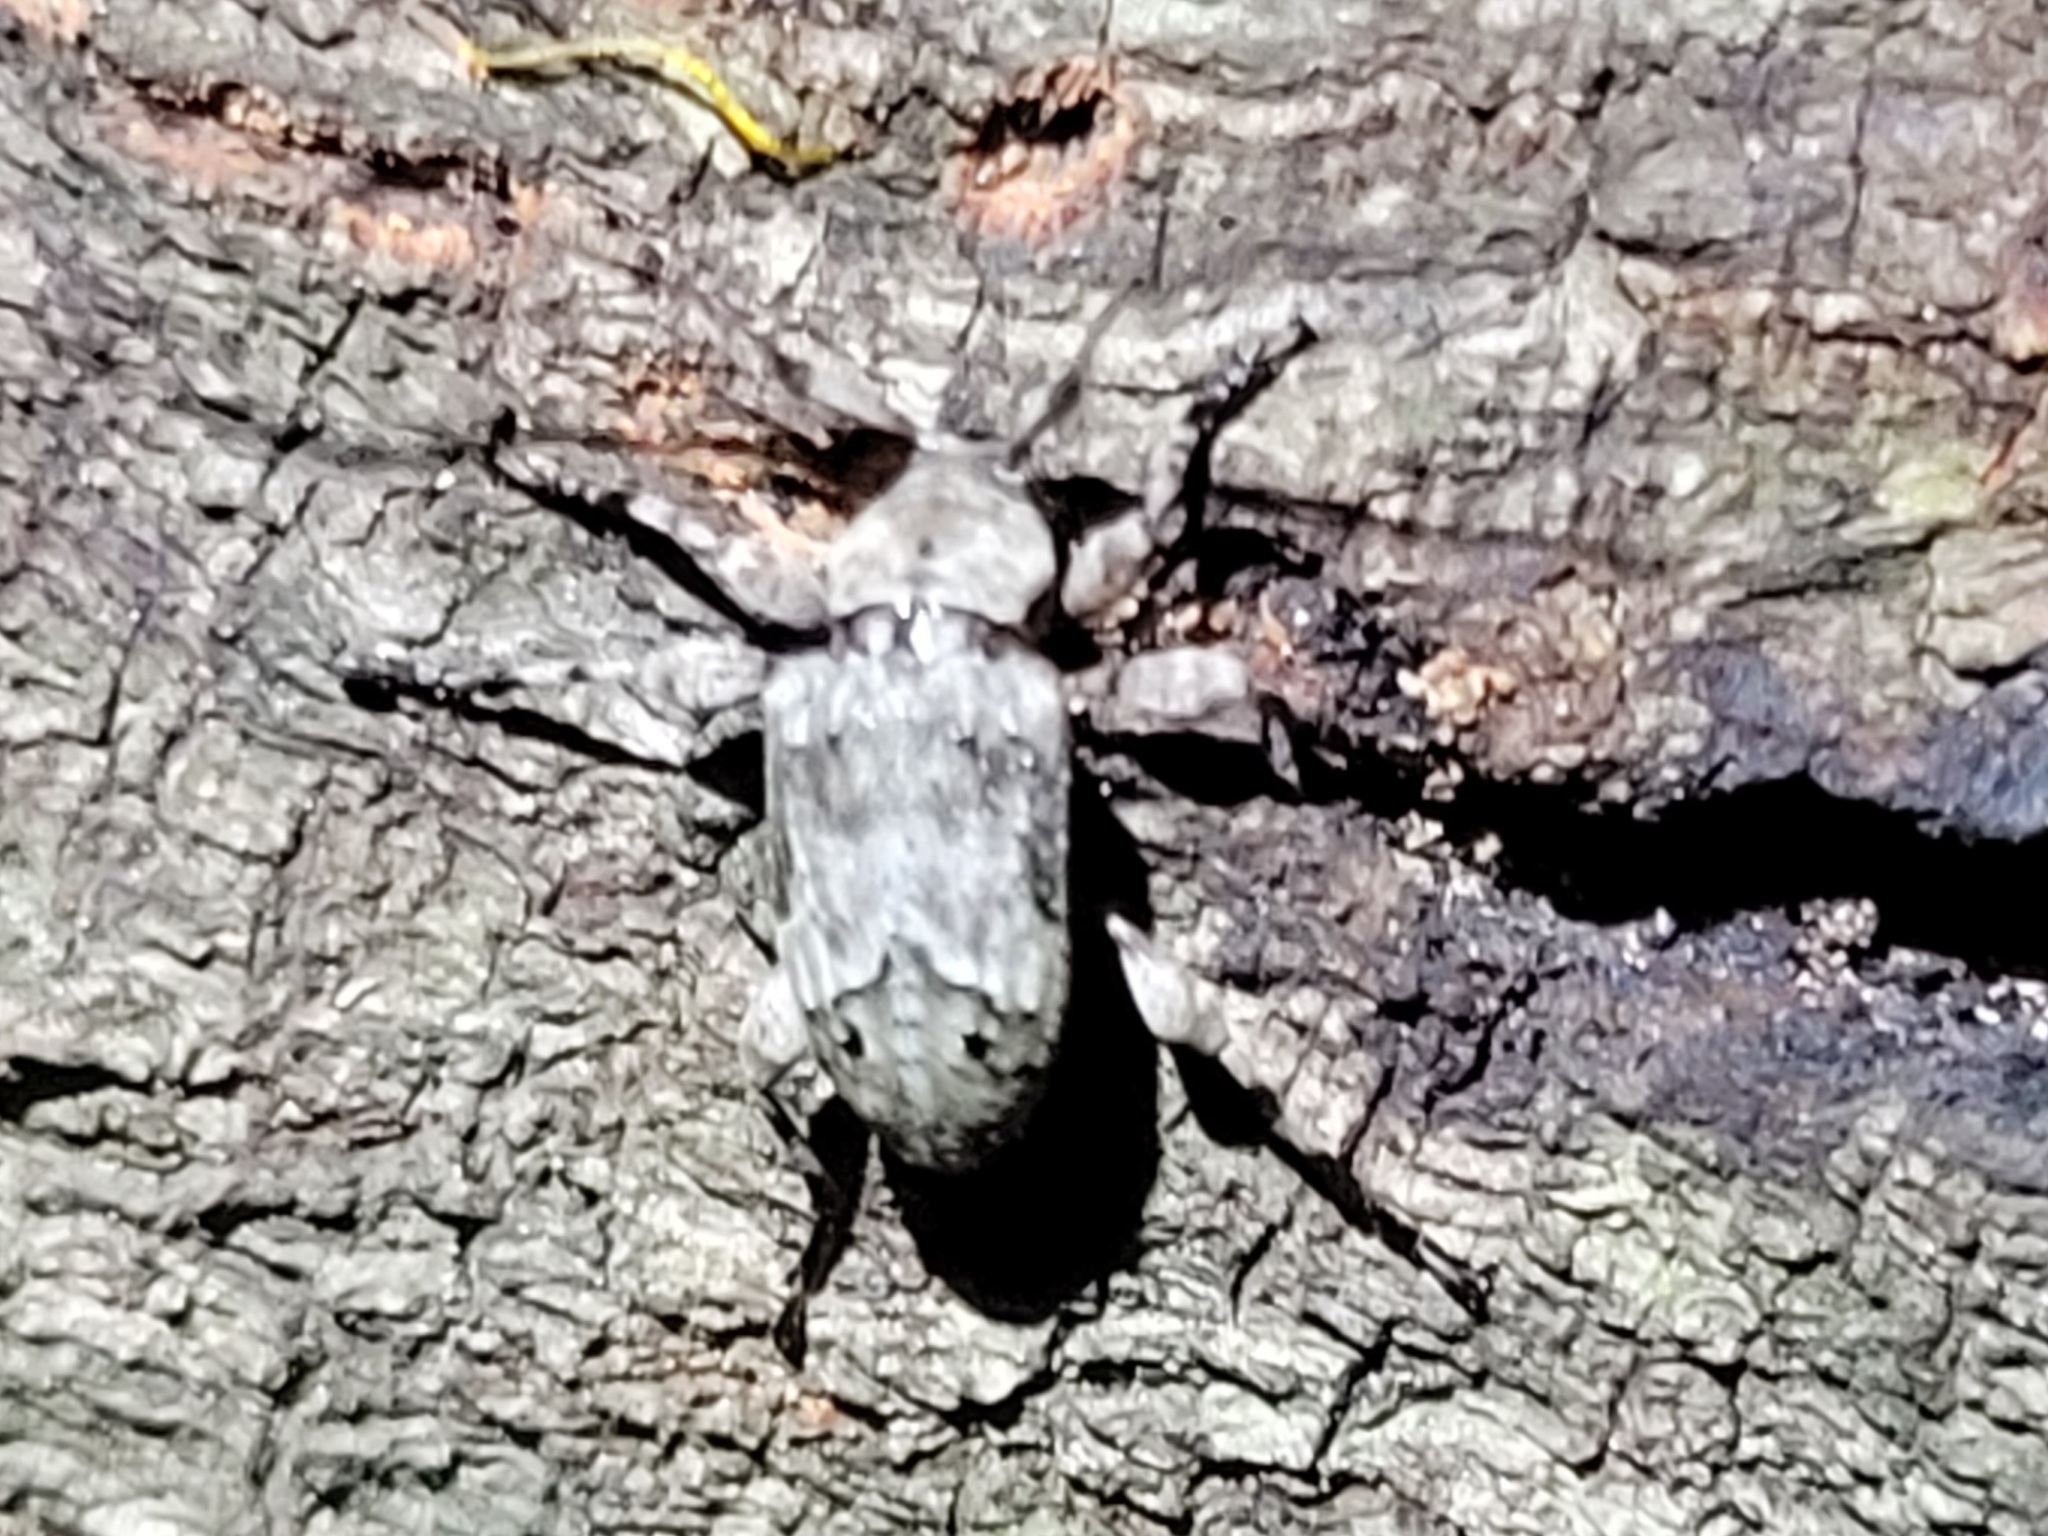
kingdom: Animalia
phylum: Arthropoda
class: Insecta
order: Coleoptera
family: Cerambycidae
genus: Leptostylopsis
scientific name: Leptostylopsis planidorsus
